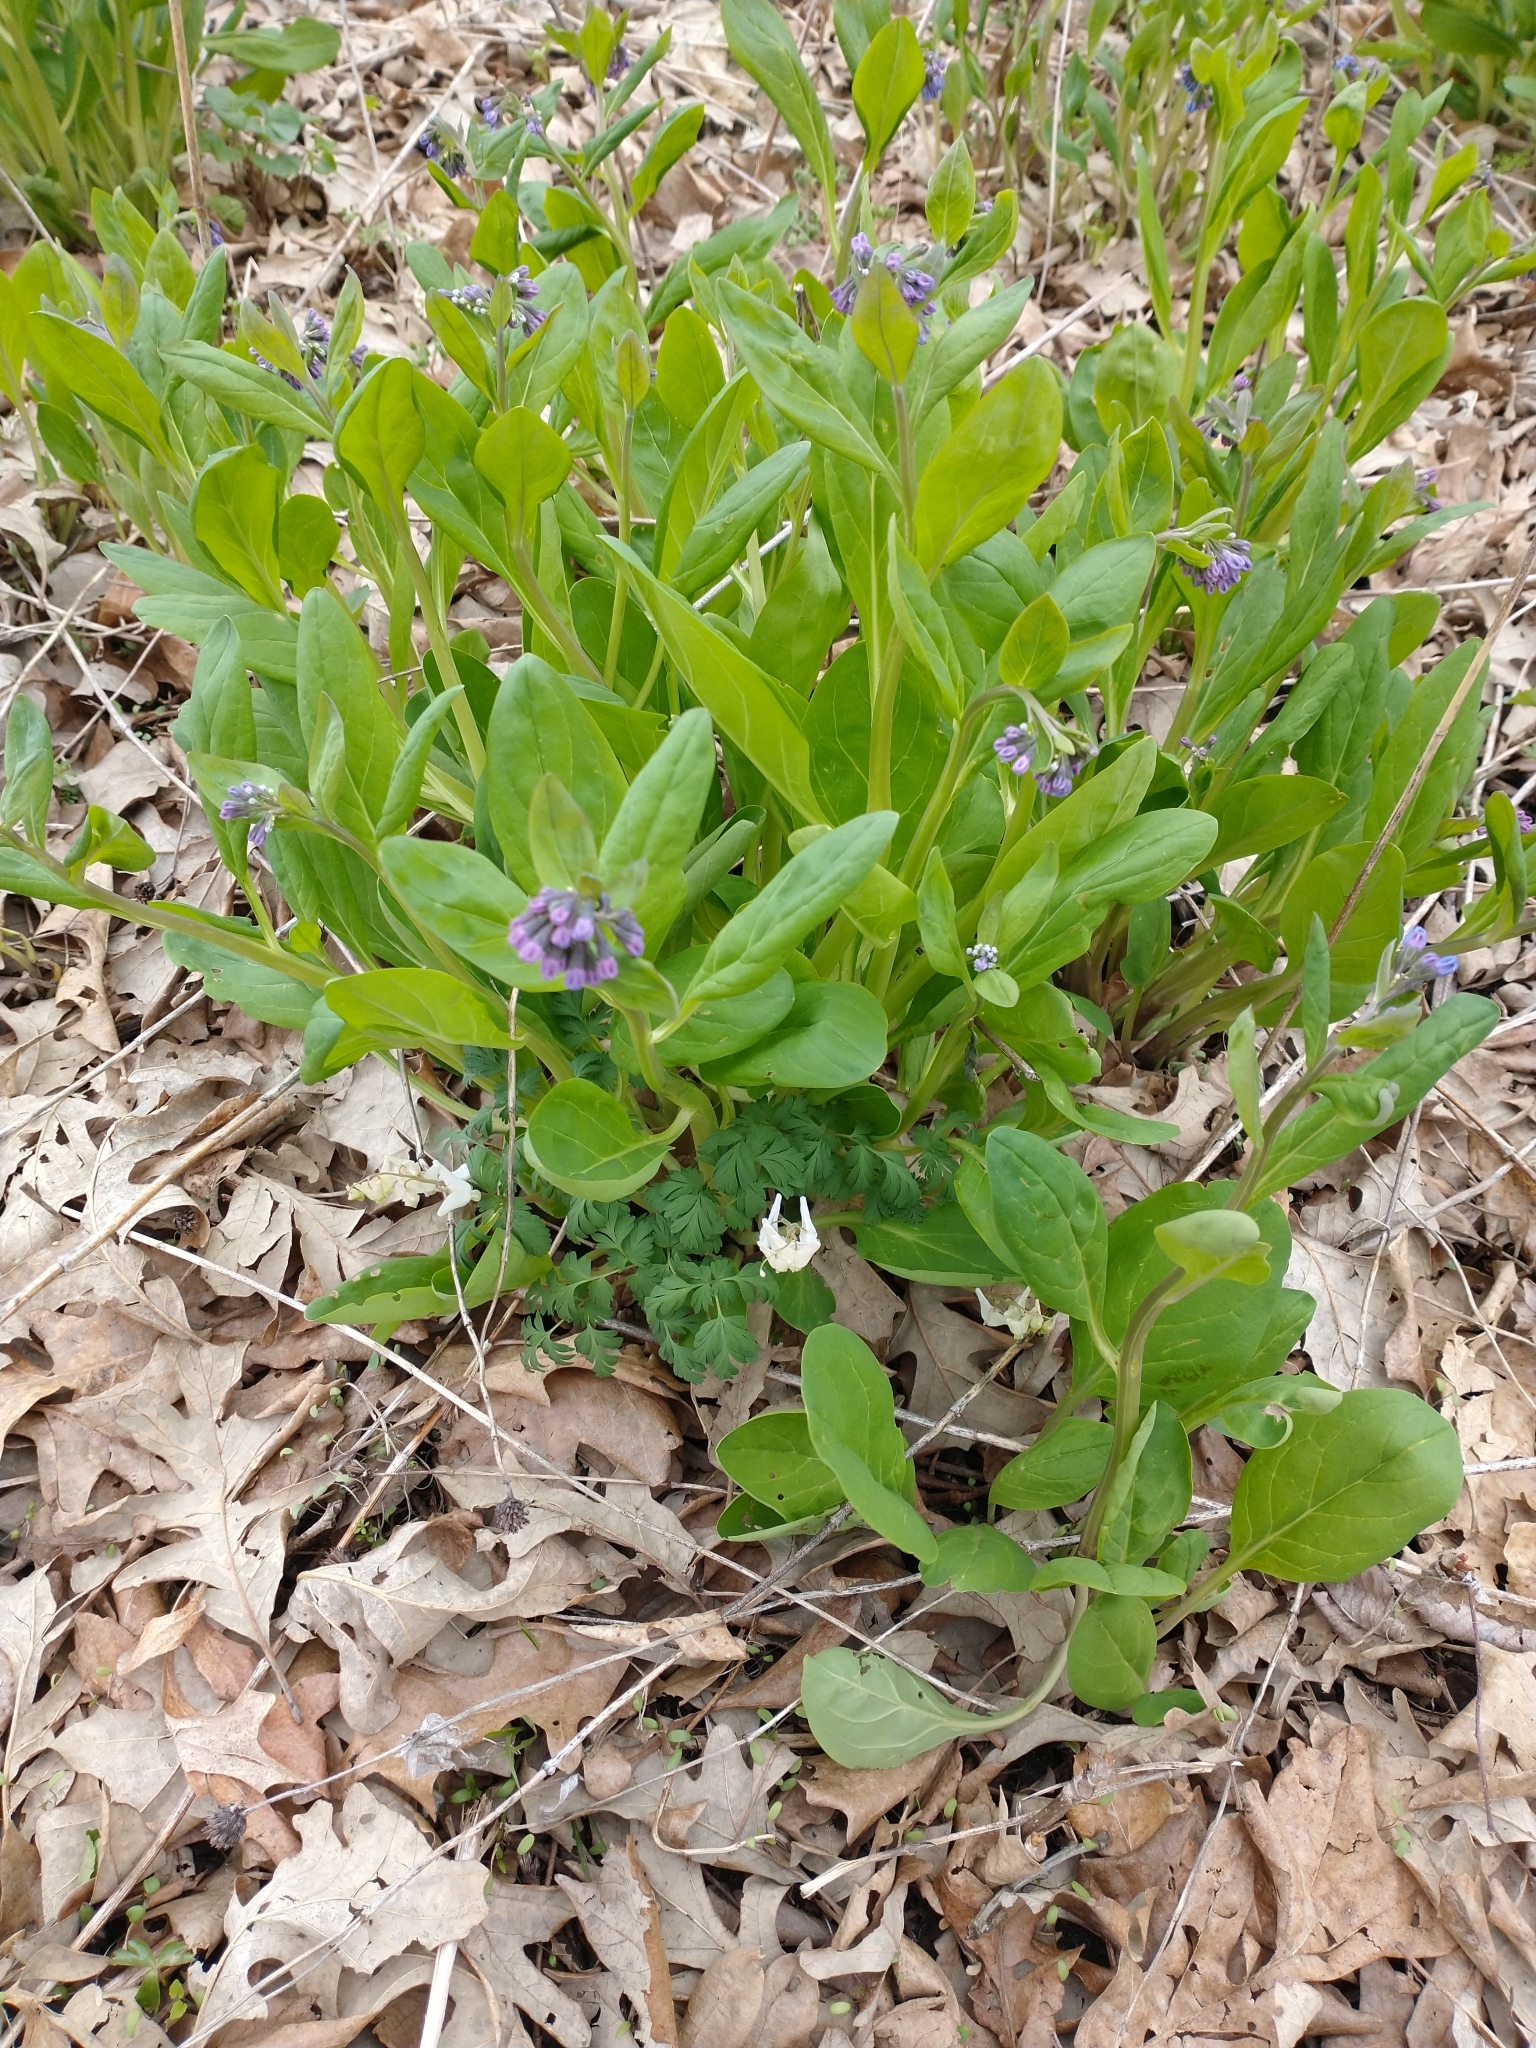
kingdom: Plantae
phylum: Tracheophyta
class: Magnoliopsida
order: Boraginales
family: Boraginaceae
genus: Mertensia
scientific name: Mertensia virginica
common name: Virginia bluebells
